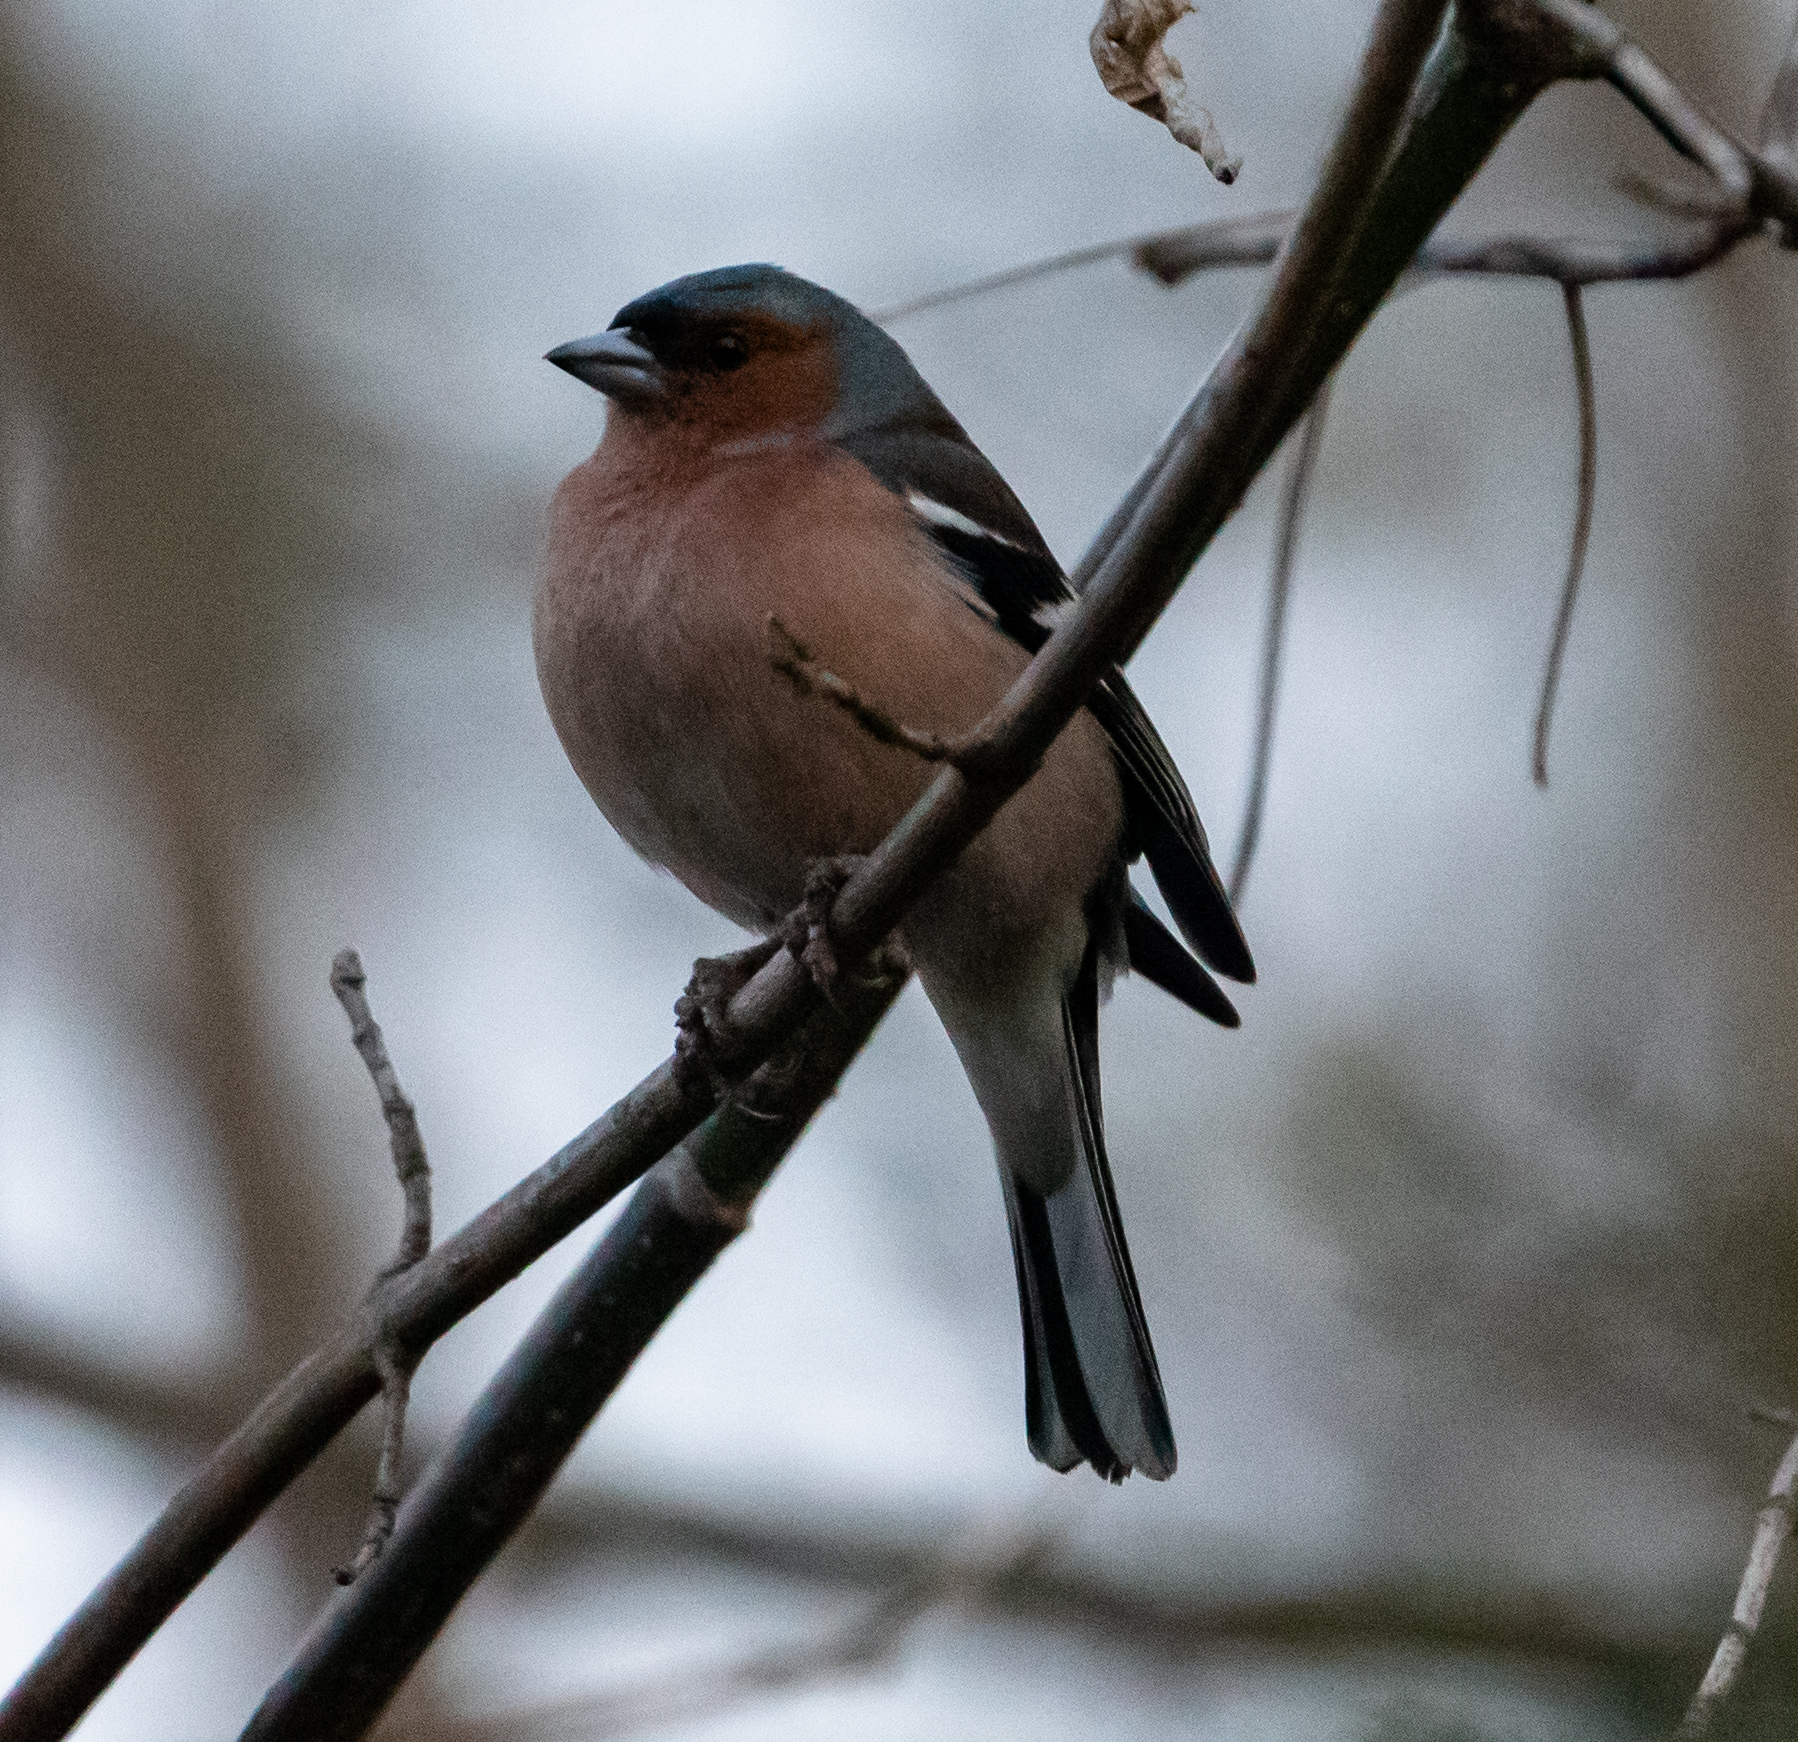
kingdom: Animalia
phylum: Chordata
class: Aves
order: Passeriformes
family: Fringillidae
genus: Fringilla
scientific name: Fringilla coelebs
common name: Common chaffinch
